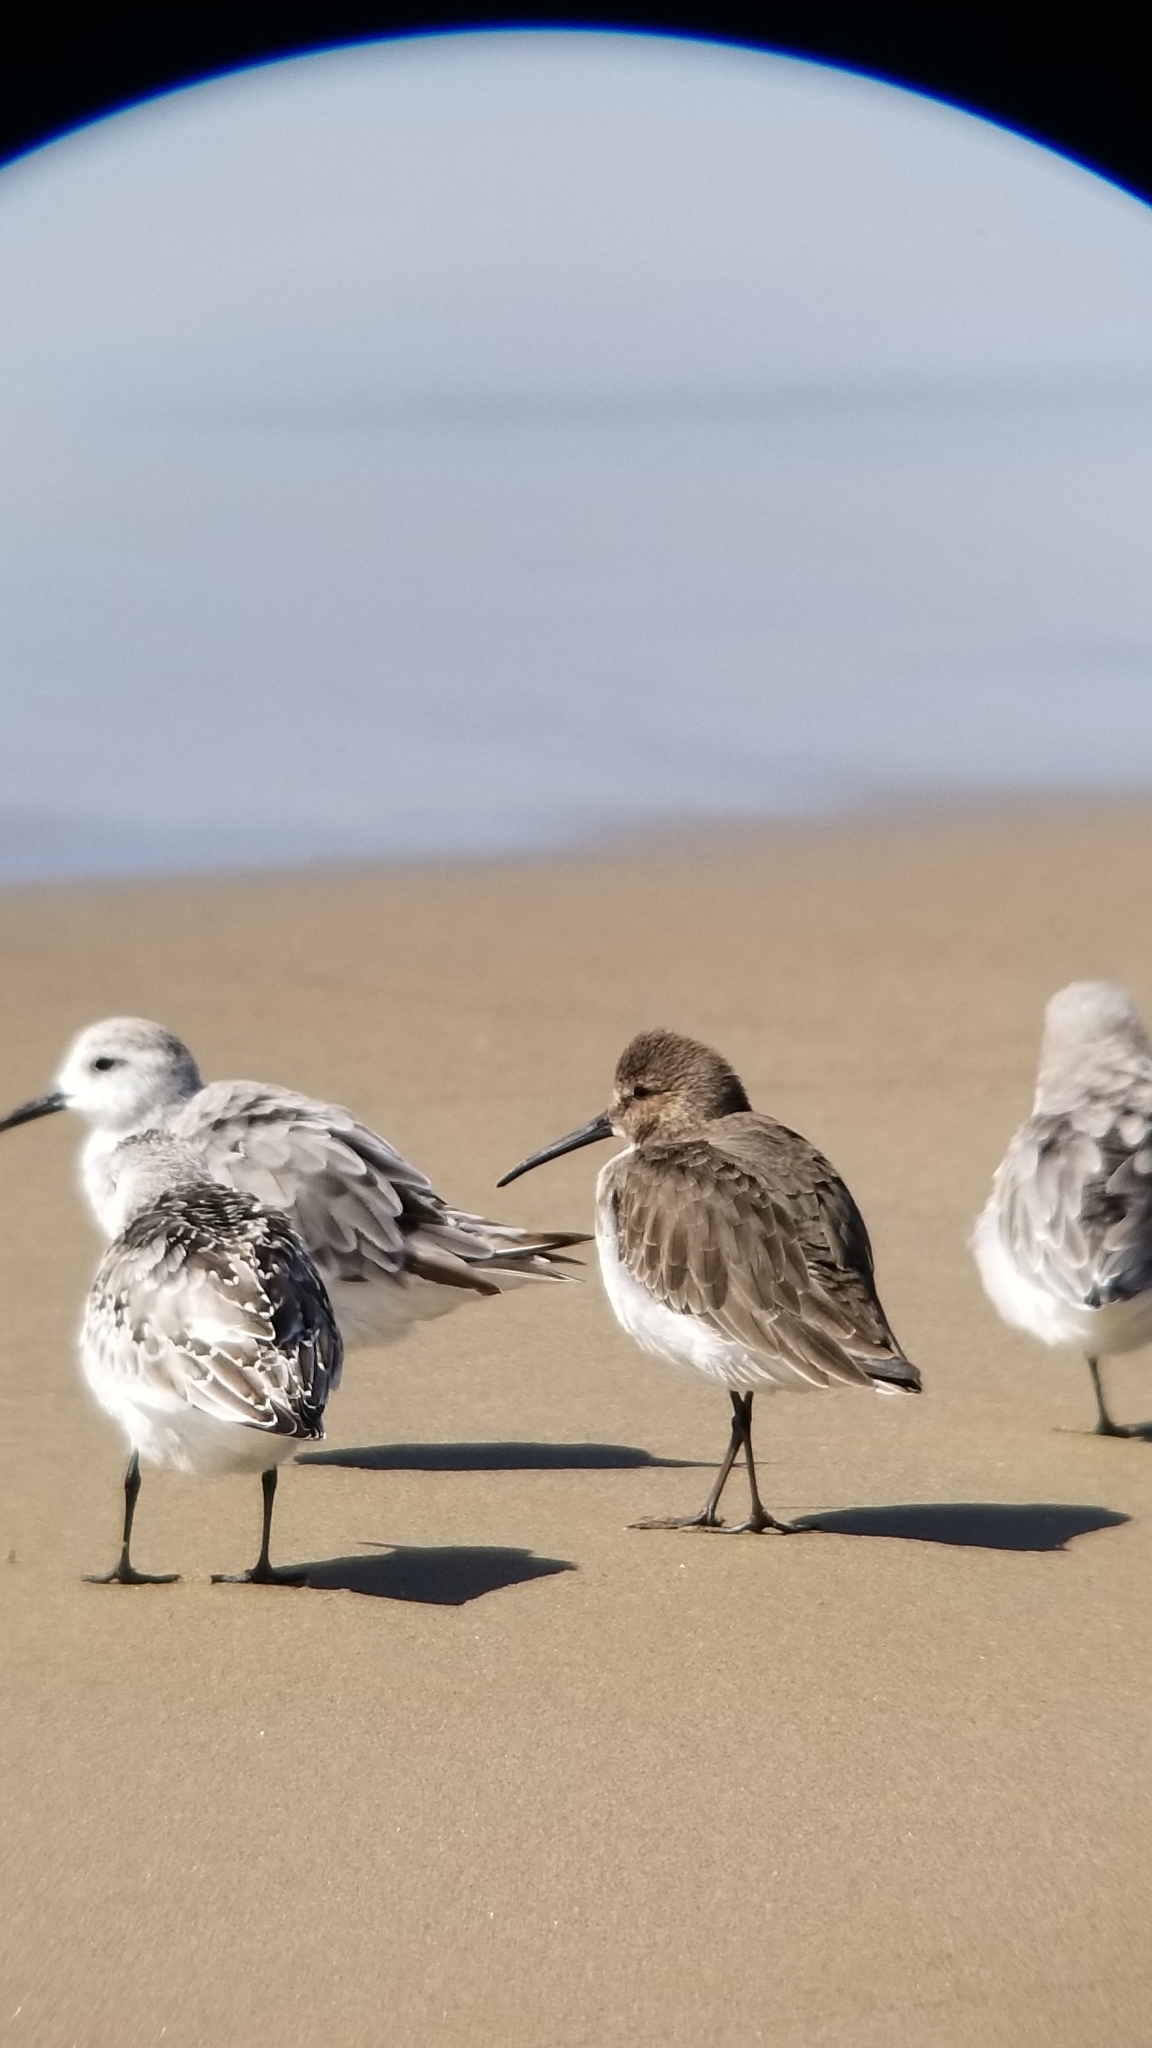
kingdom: Animalia
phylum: Chordata
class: Aves
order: Charadriiformes
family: Scolopacidae
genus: Calidris
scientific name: Calidris alpina
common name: Dunlin
